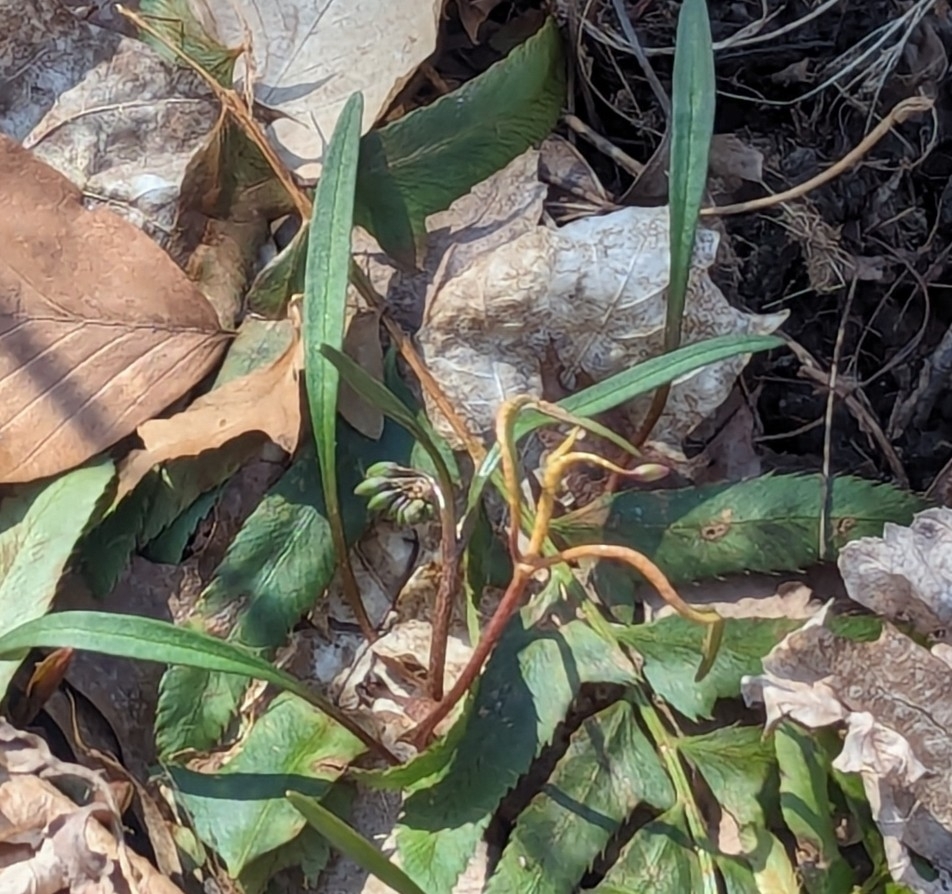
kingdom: Fungi
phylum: Basidiomycota
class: Pucciniomycetes
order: Pucciniales
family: Pucciniaceae
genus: Puccinia
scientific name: Puccinia mariae-wilsoniae
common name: Spring beauty rust
